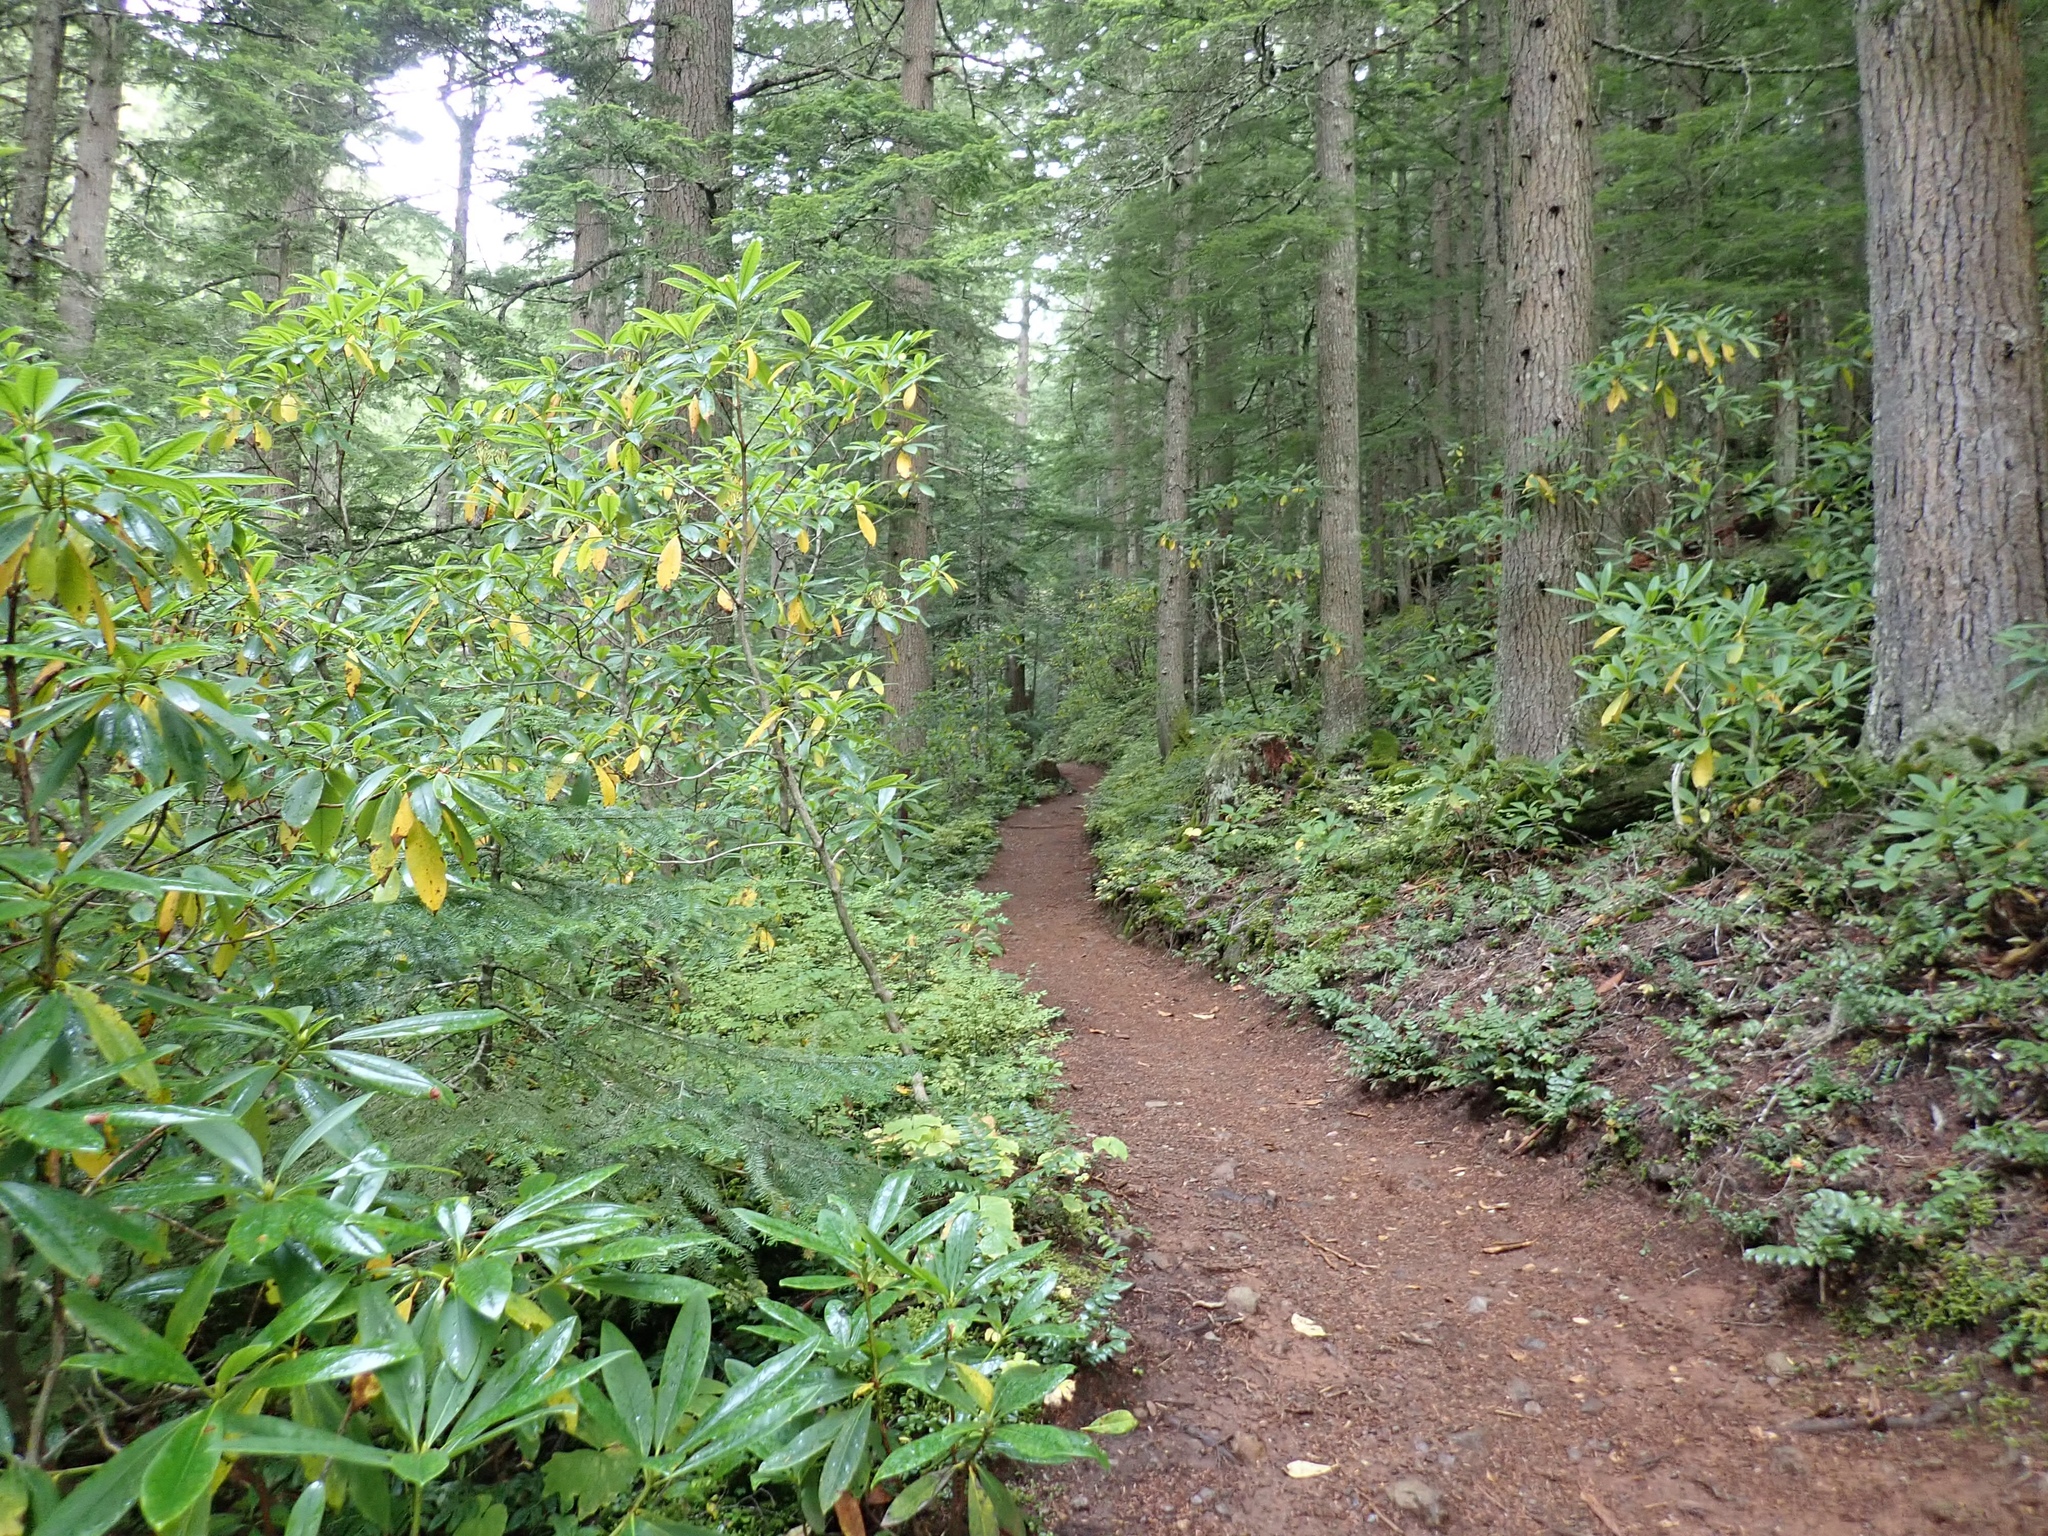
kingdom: Plantae
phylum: Tracheophyta
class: Magnoliopsida
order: Ericales
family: Ericaceae
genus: Rhododendron
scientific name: Rhododendron macrophyllum
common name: California rose bay
